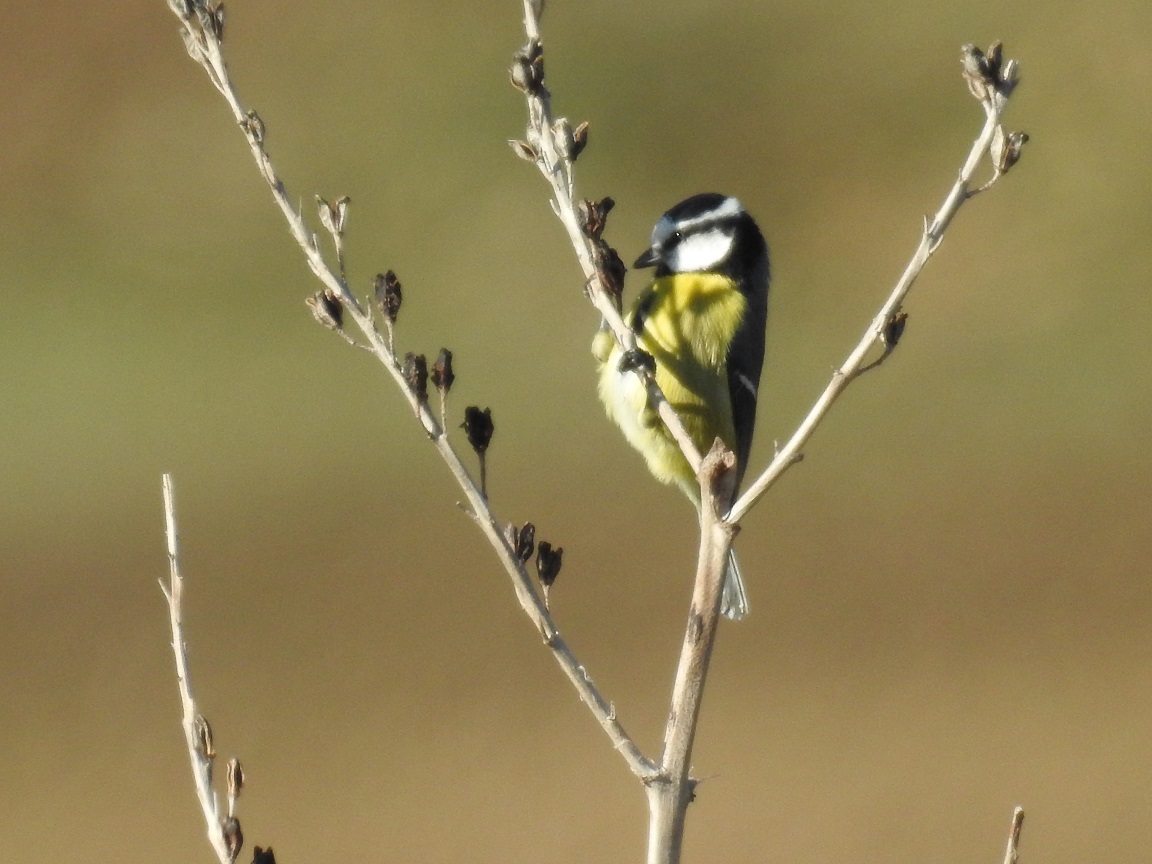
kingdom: Animalia
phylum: Chordata
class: Aves
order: Passeriformes
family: Paridae
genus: Cyanistes
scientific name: Cyanistes teneriffae
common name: African blue tit
